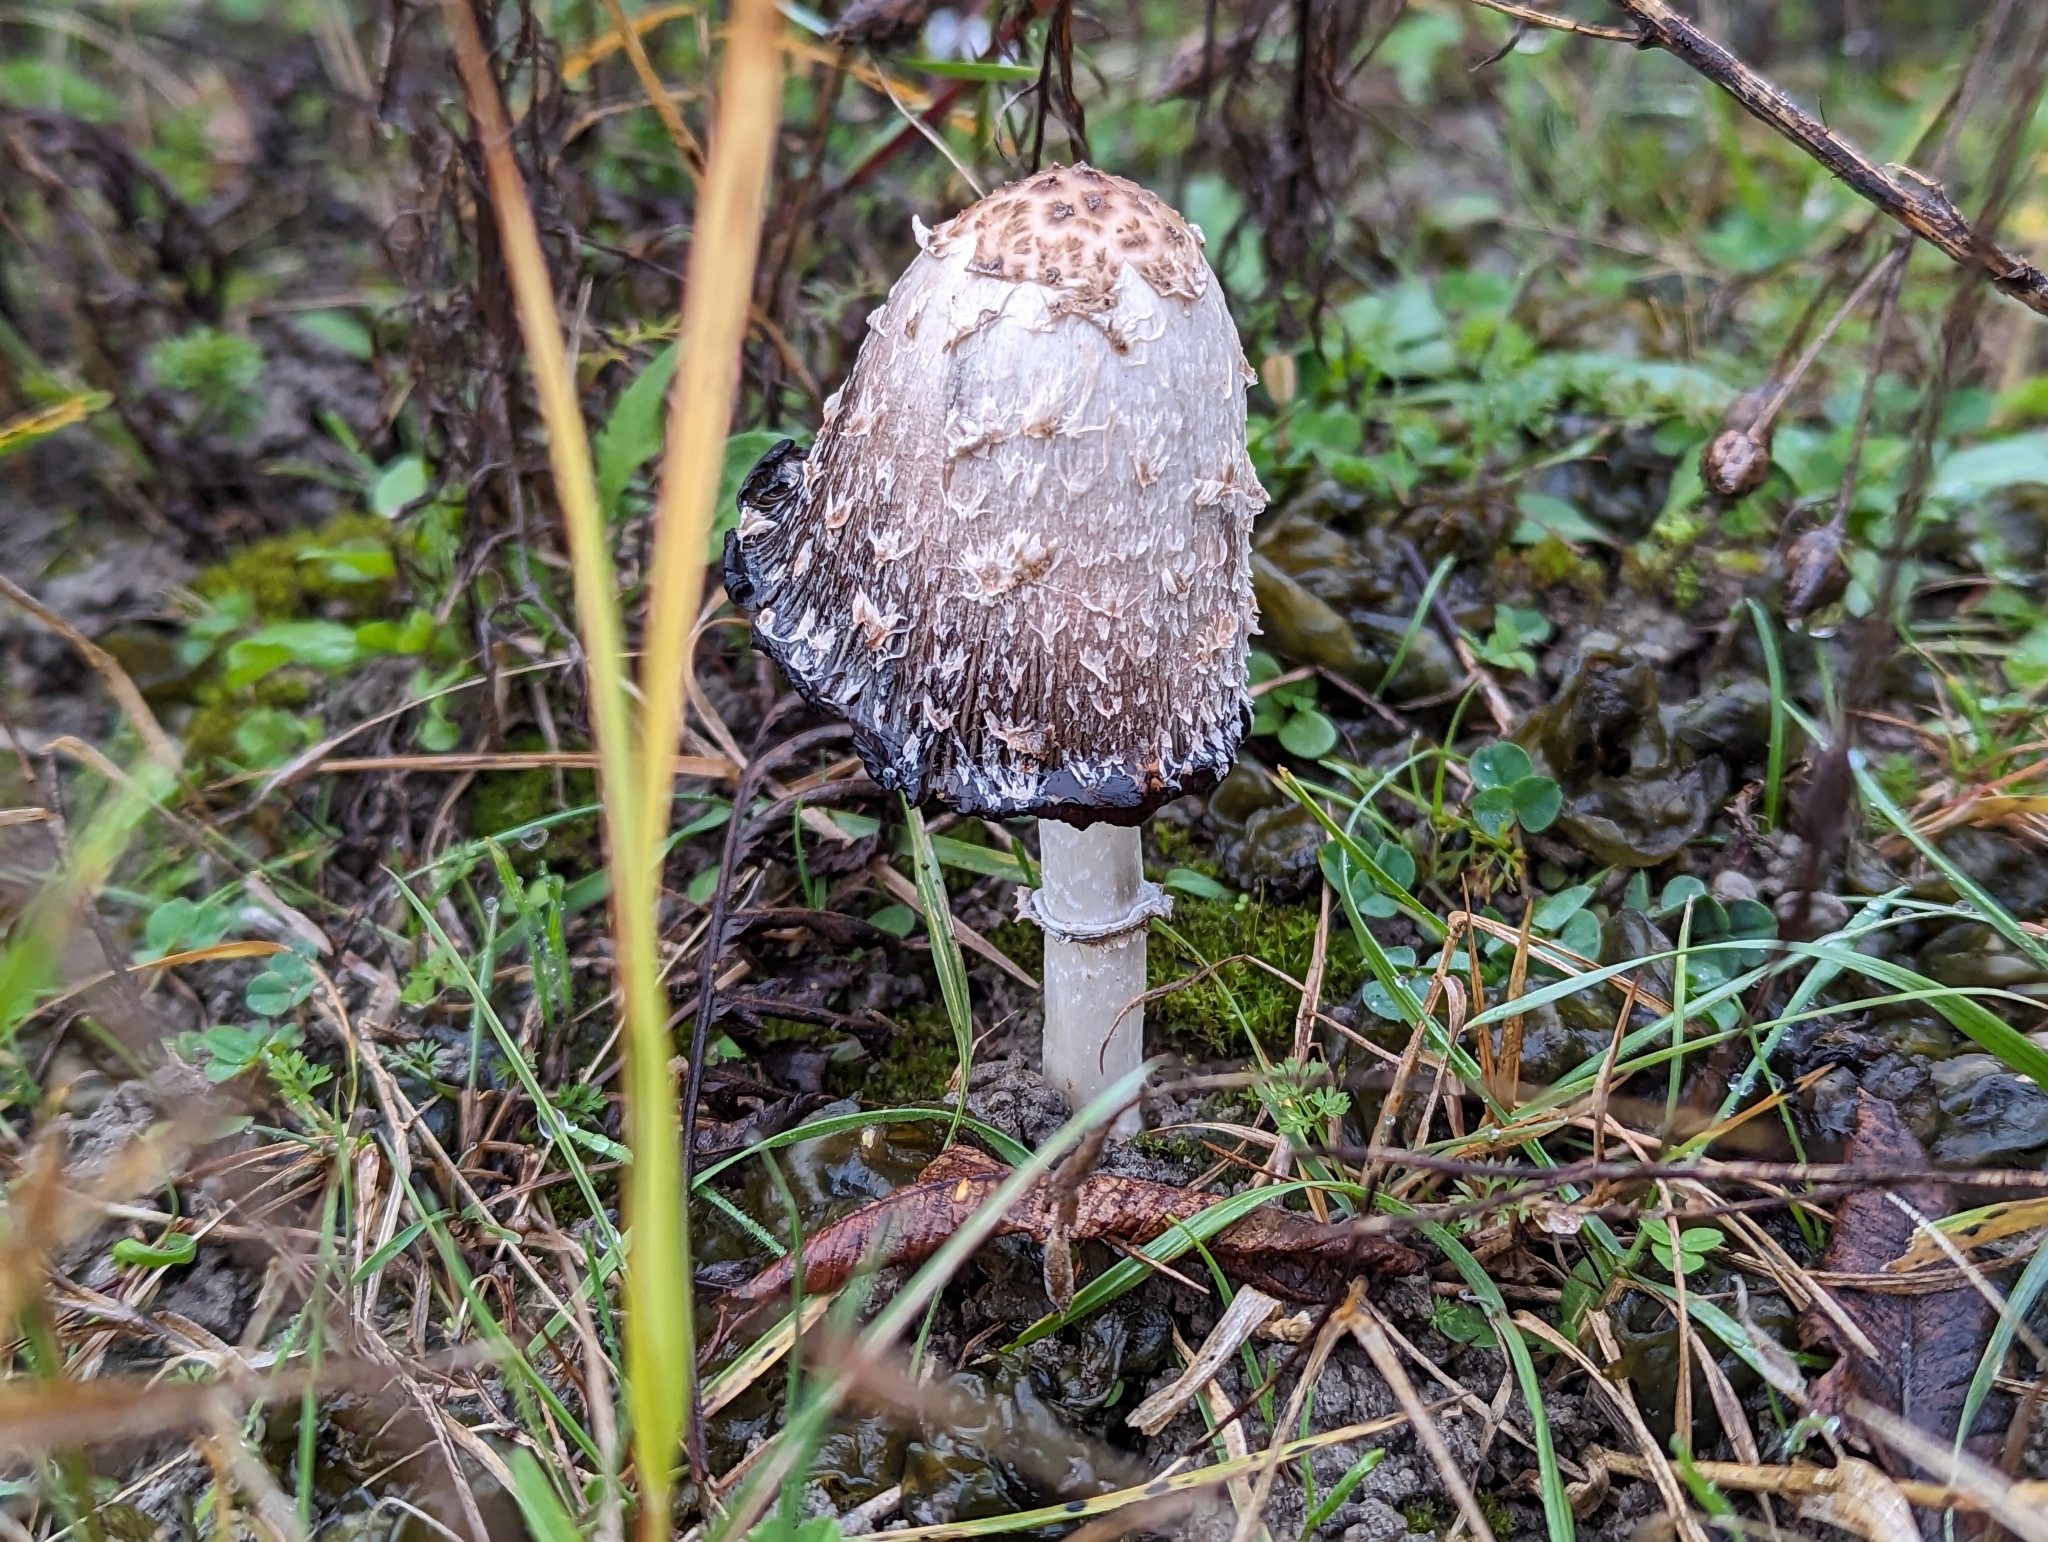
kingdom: Fungi
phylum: Basidiomycota
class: Agaricomycetes
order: Agaricales
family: Agaricaceae
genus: Coprinus
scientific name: Coprinus comatus
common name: Lawyer's wig
